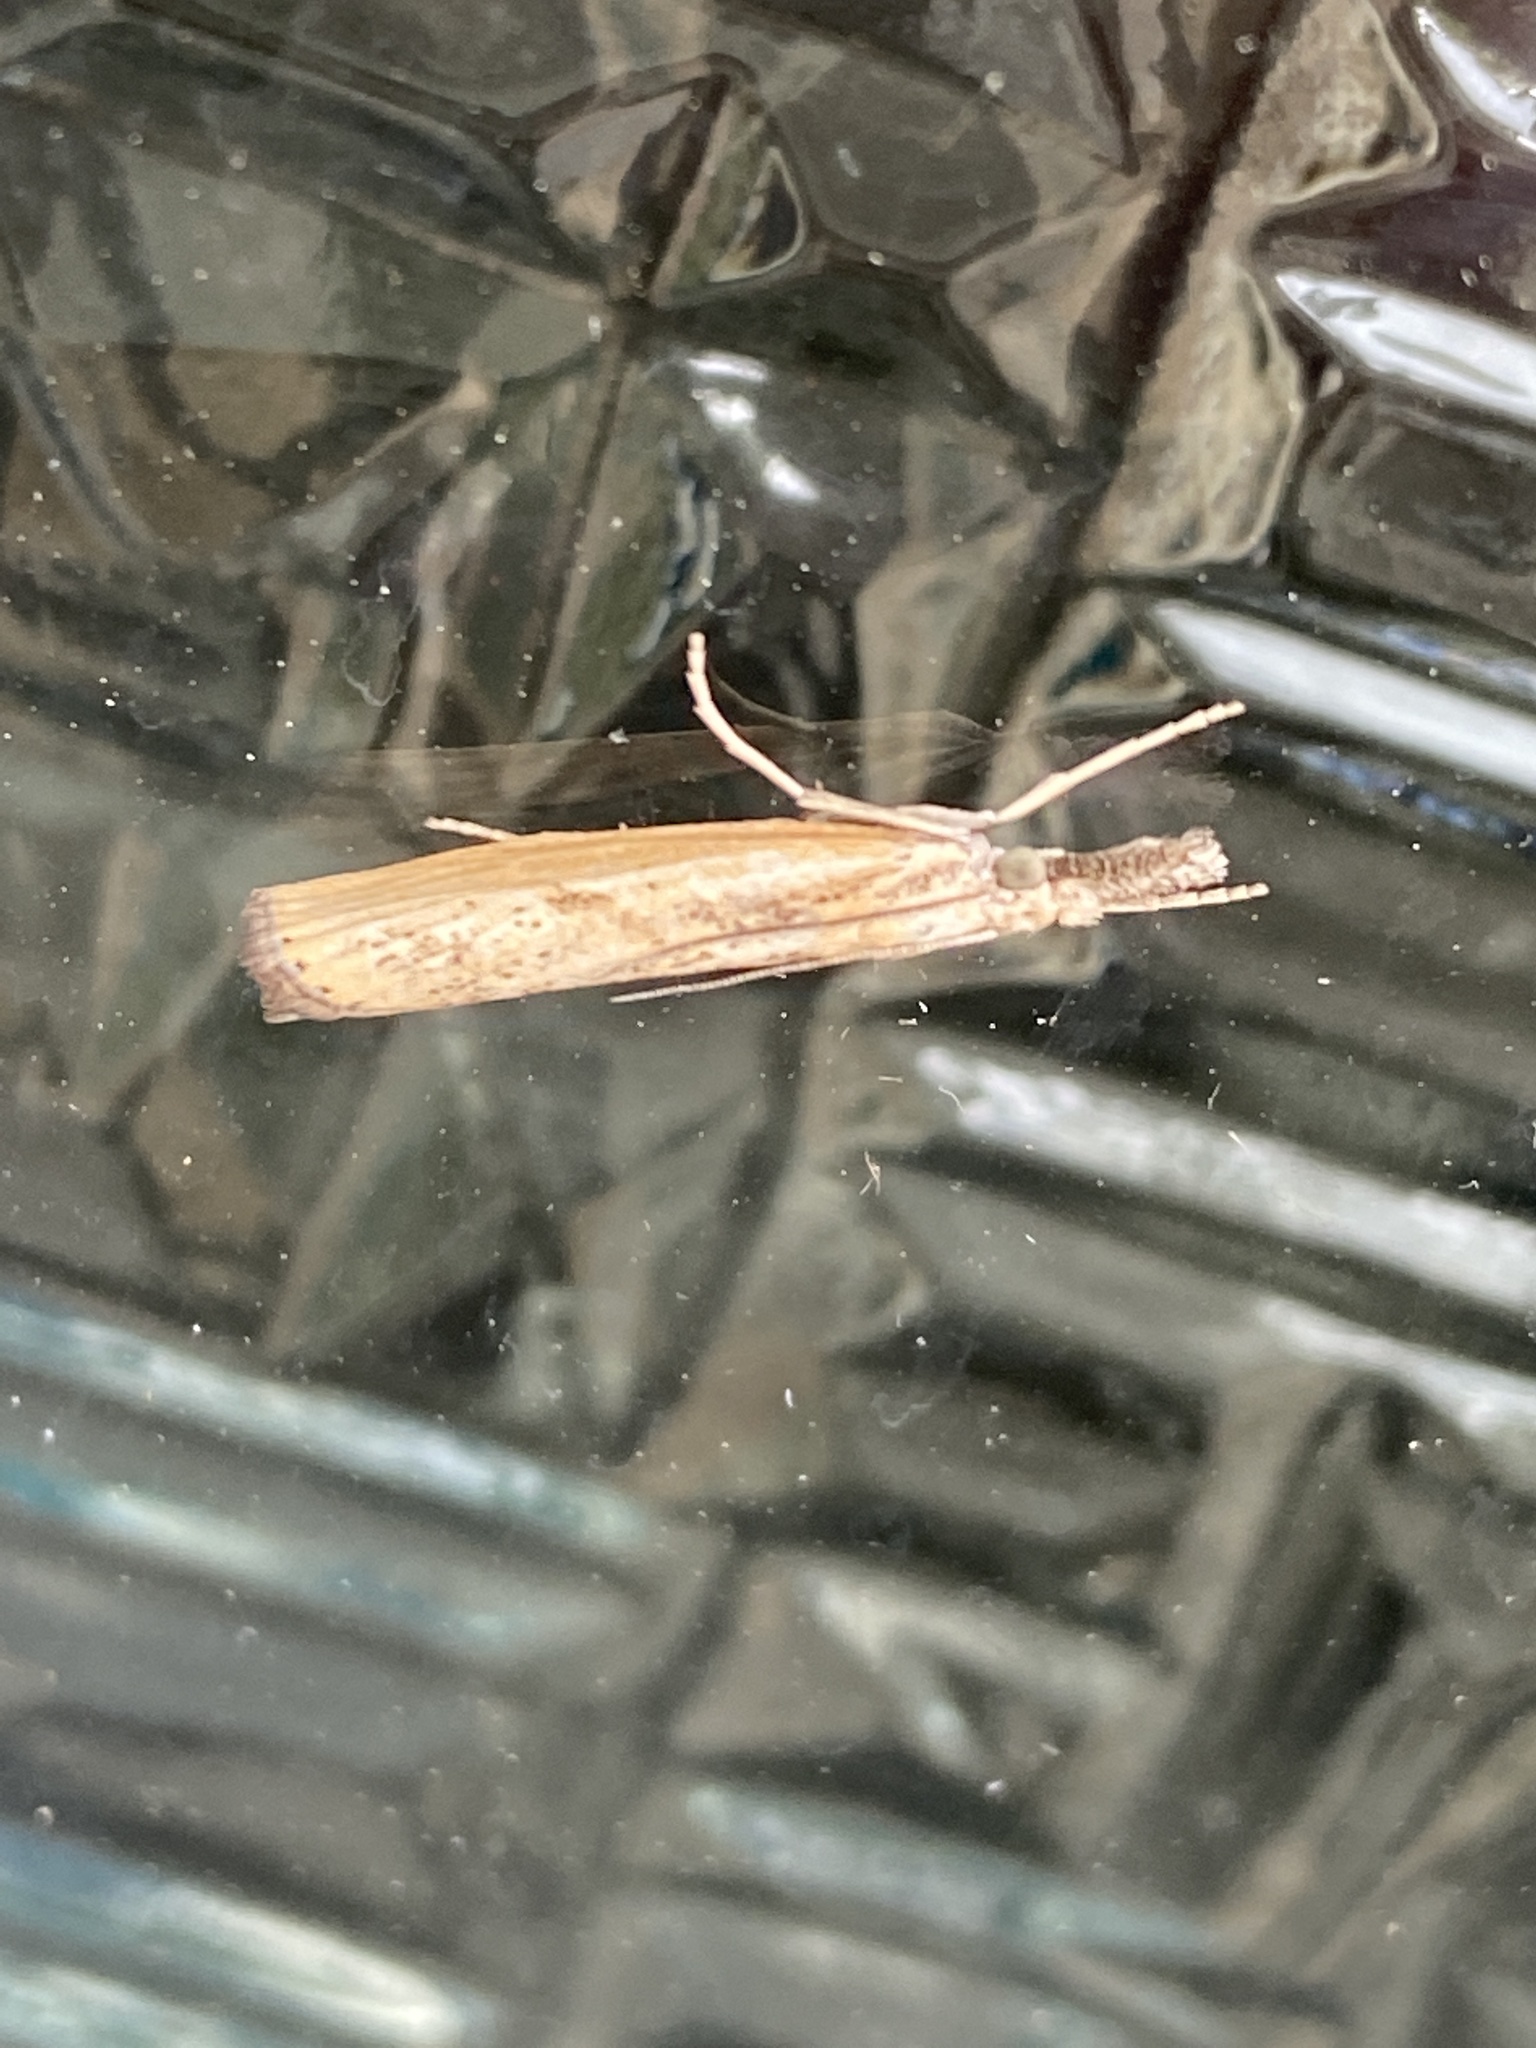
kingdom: Animalia
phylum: Arthropoda
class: Insecta
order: Lepidoptera
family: Crambidae
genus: Agriphila
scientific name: Agriphila inquinatella
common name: Barred grass-veneer
